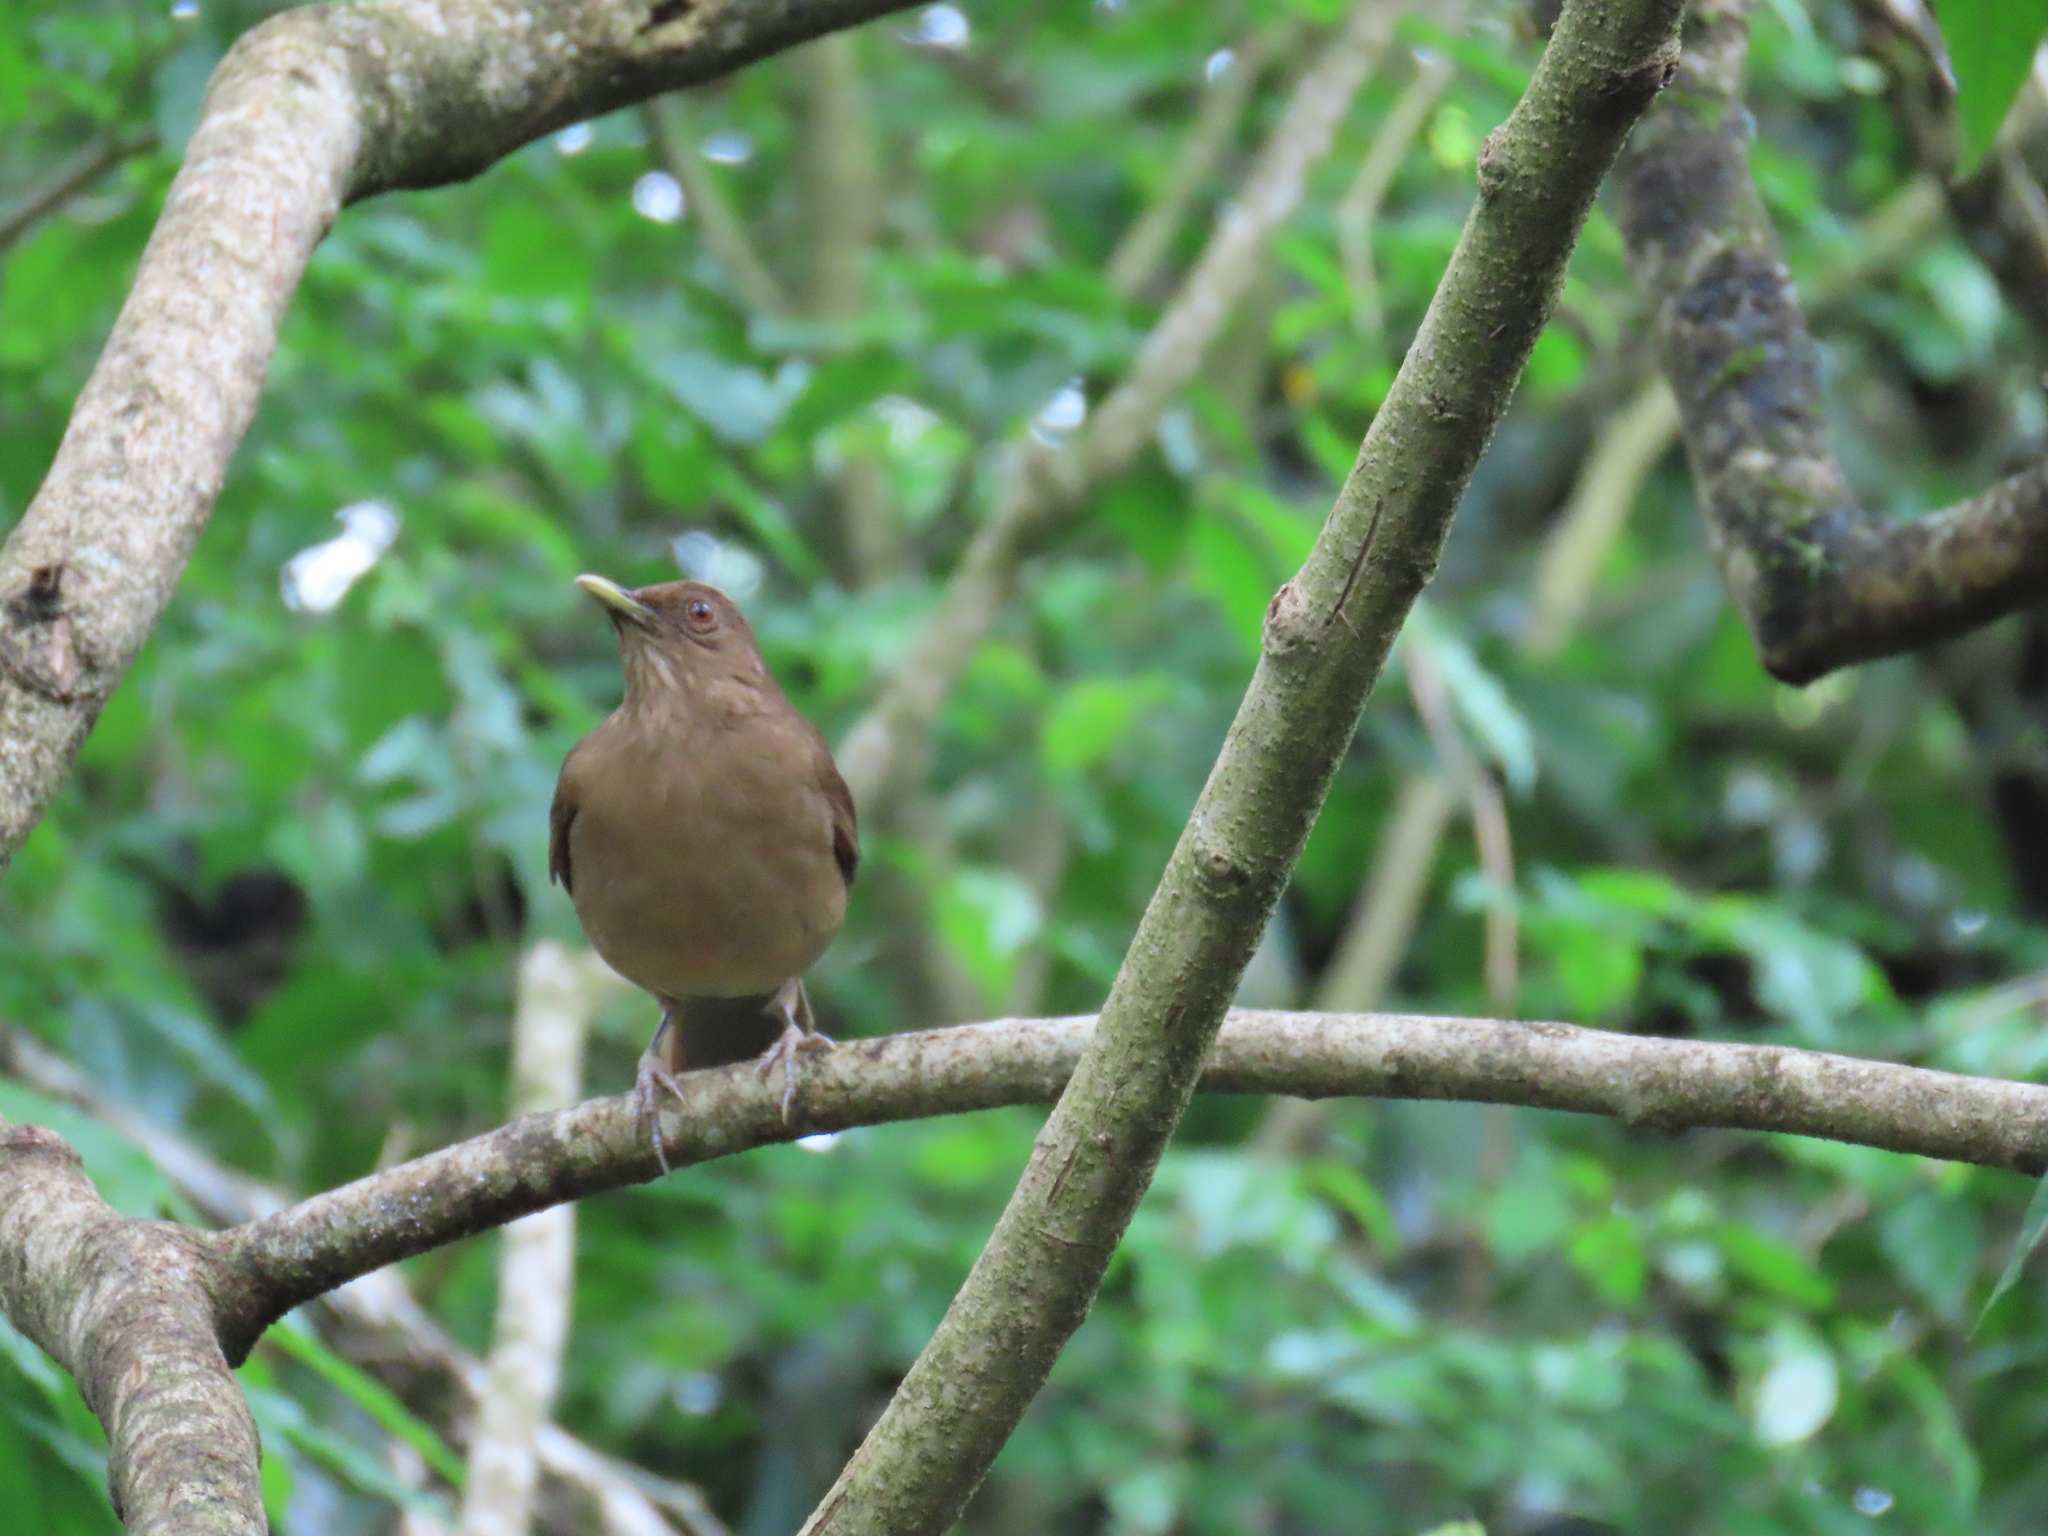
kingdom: Animalia
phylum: Chordata
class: Aves
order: Passeriformes
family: Turdidae
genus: Turdus
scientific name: Turdus grayi
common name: Clay-colored thrush
